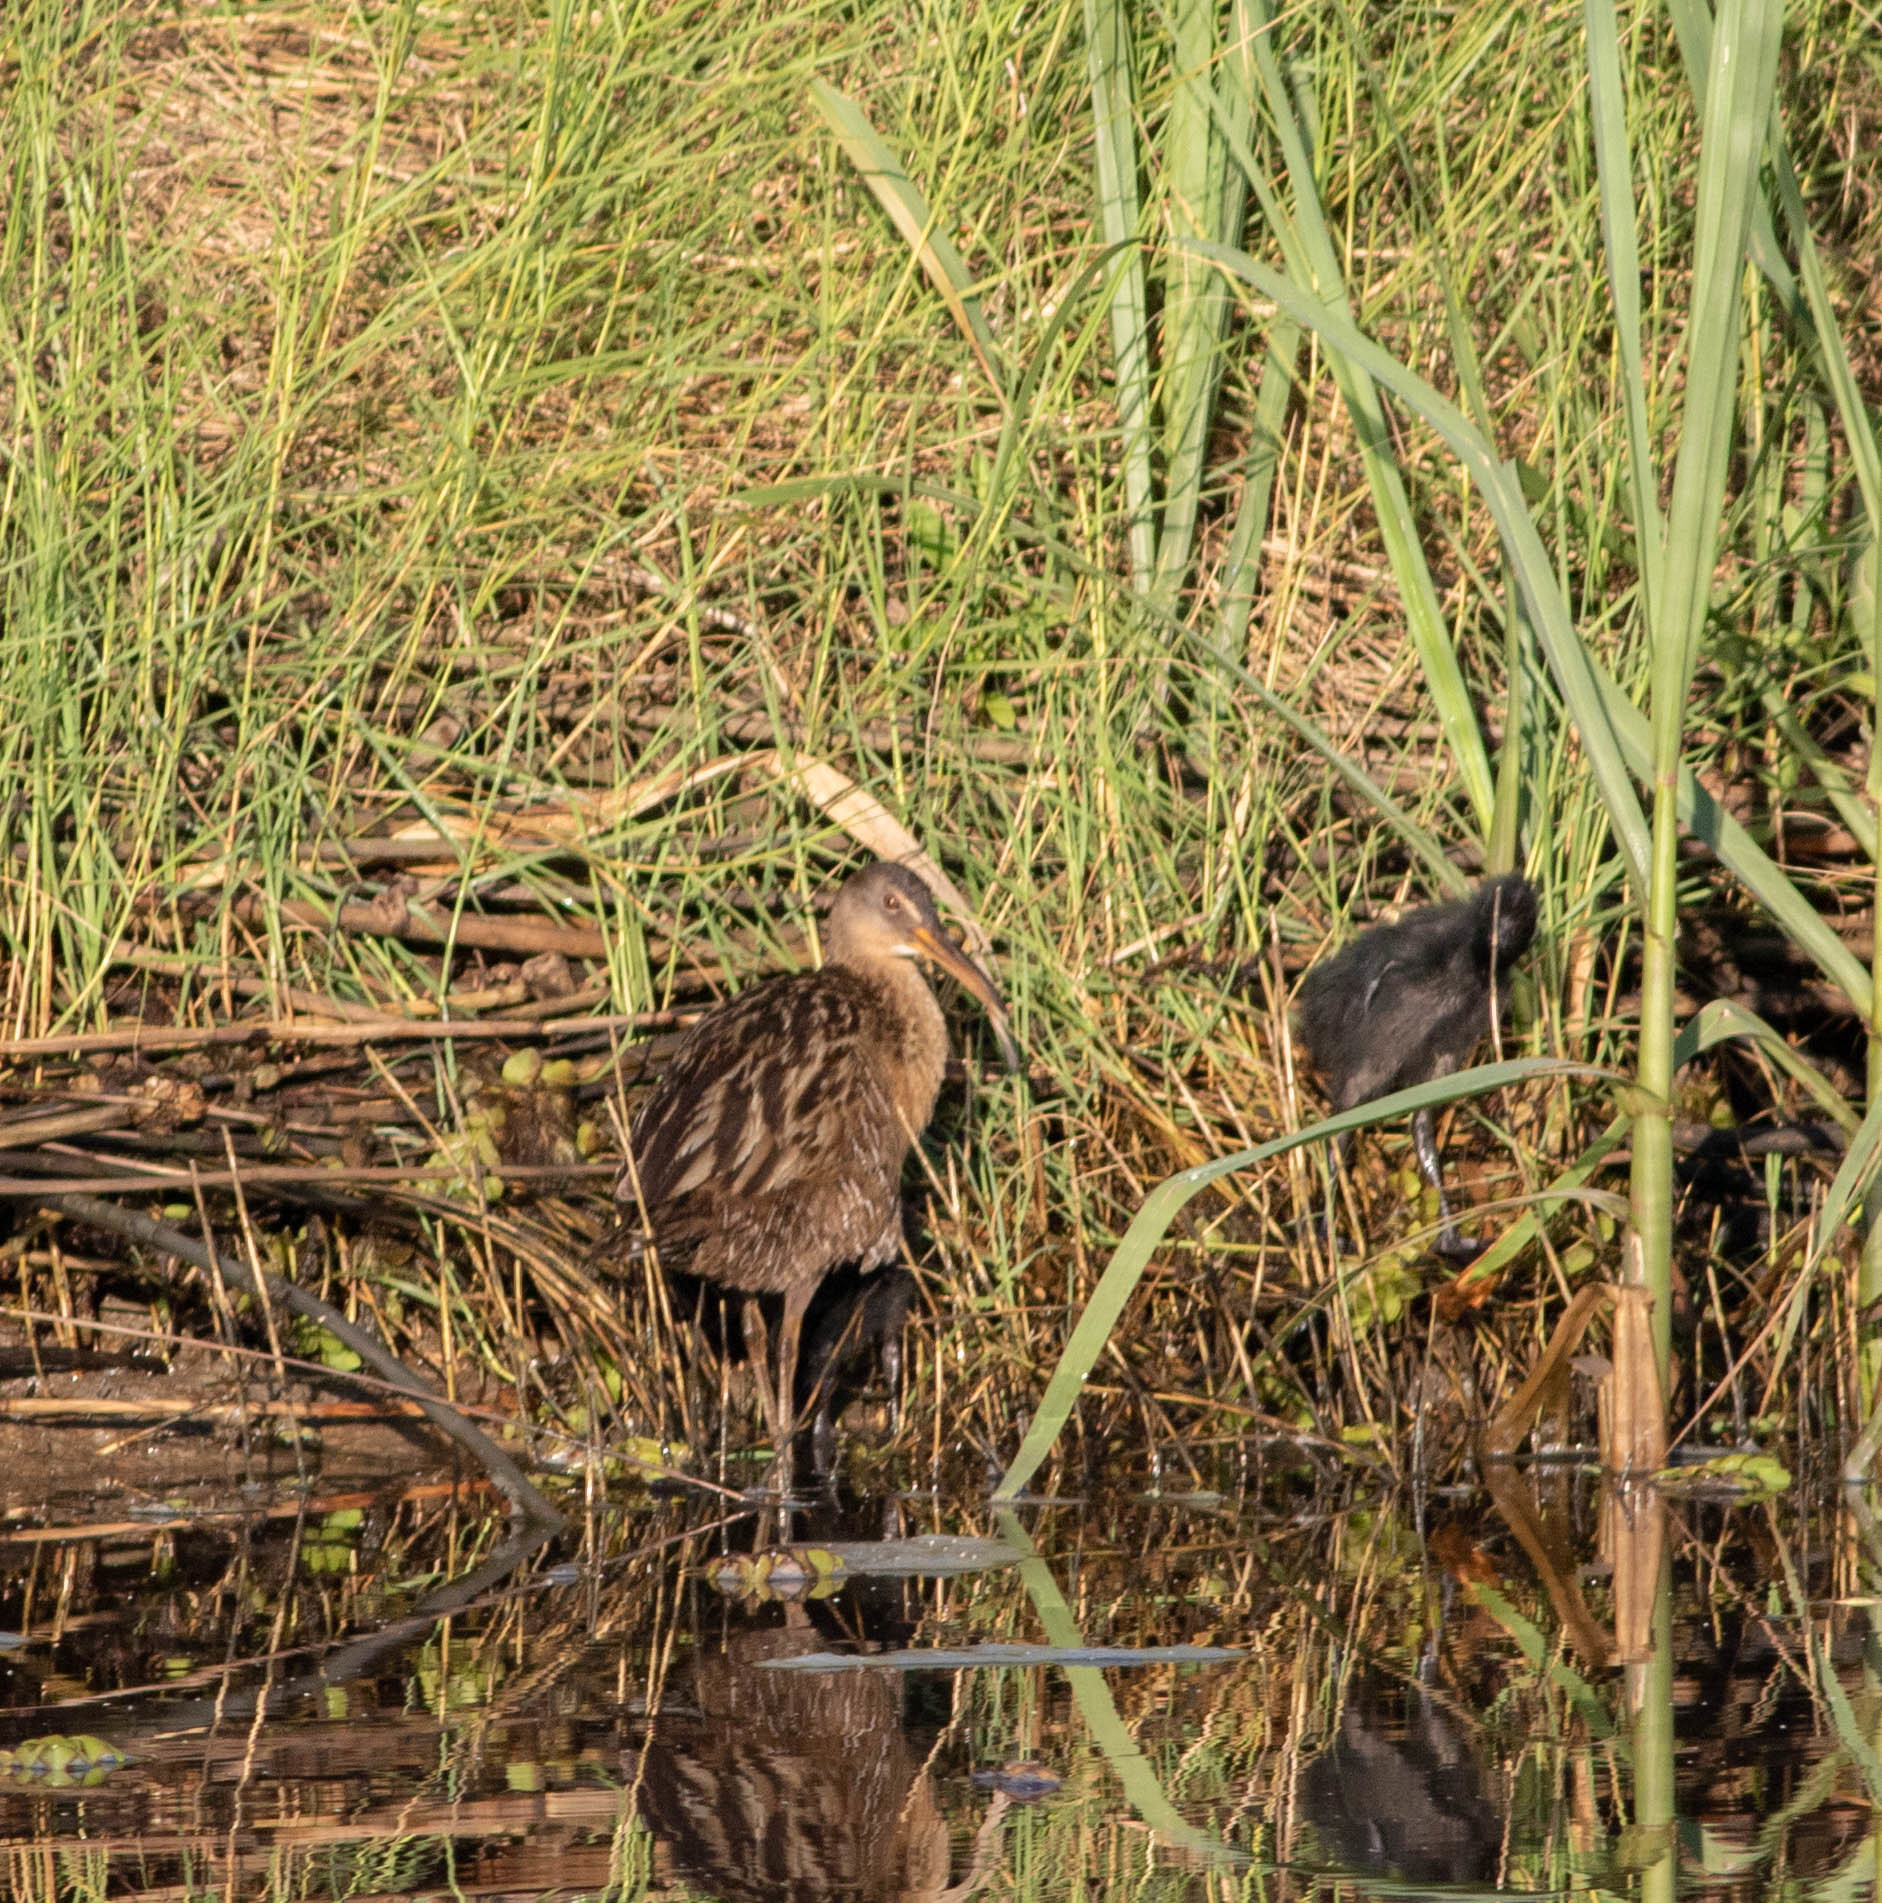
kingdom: Animalia
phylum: Chordata
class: Aves
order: Gruiformes
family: Rallidae
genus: Rallus
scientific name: Rallus crepitans
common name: Clapper rail
